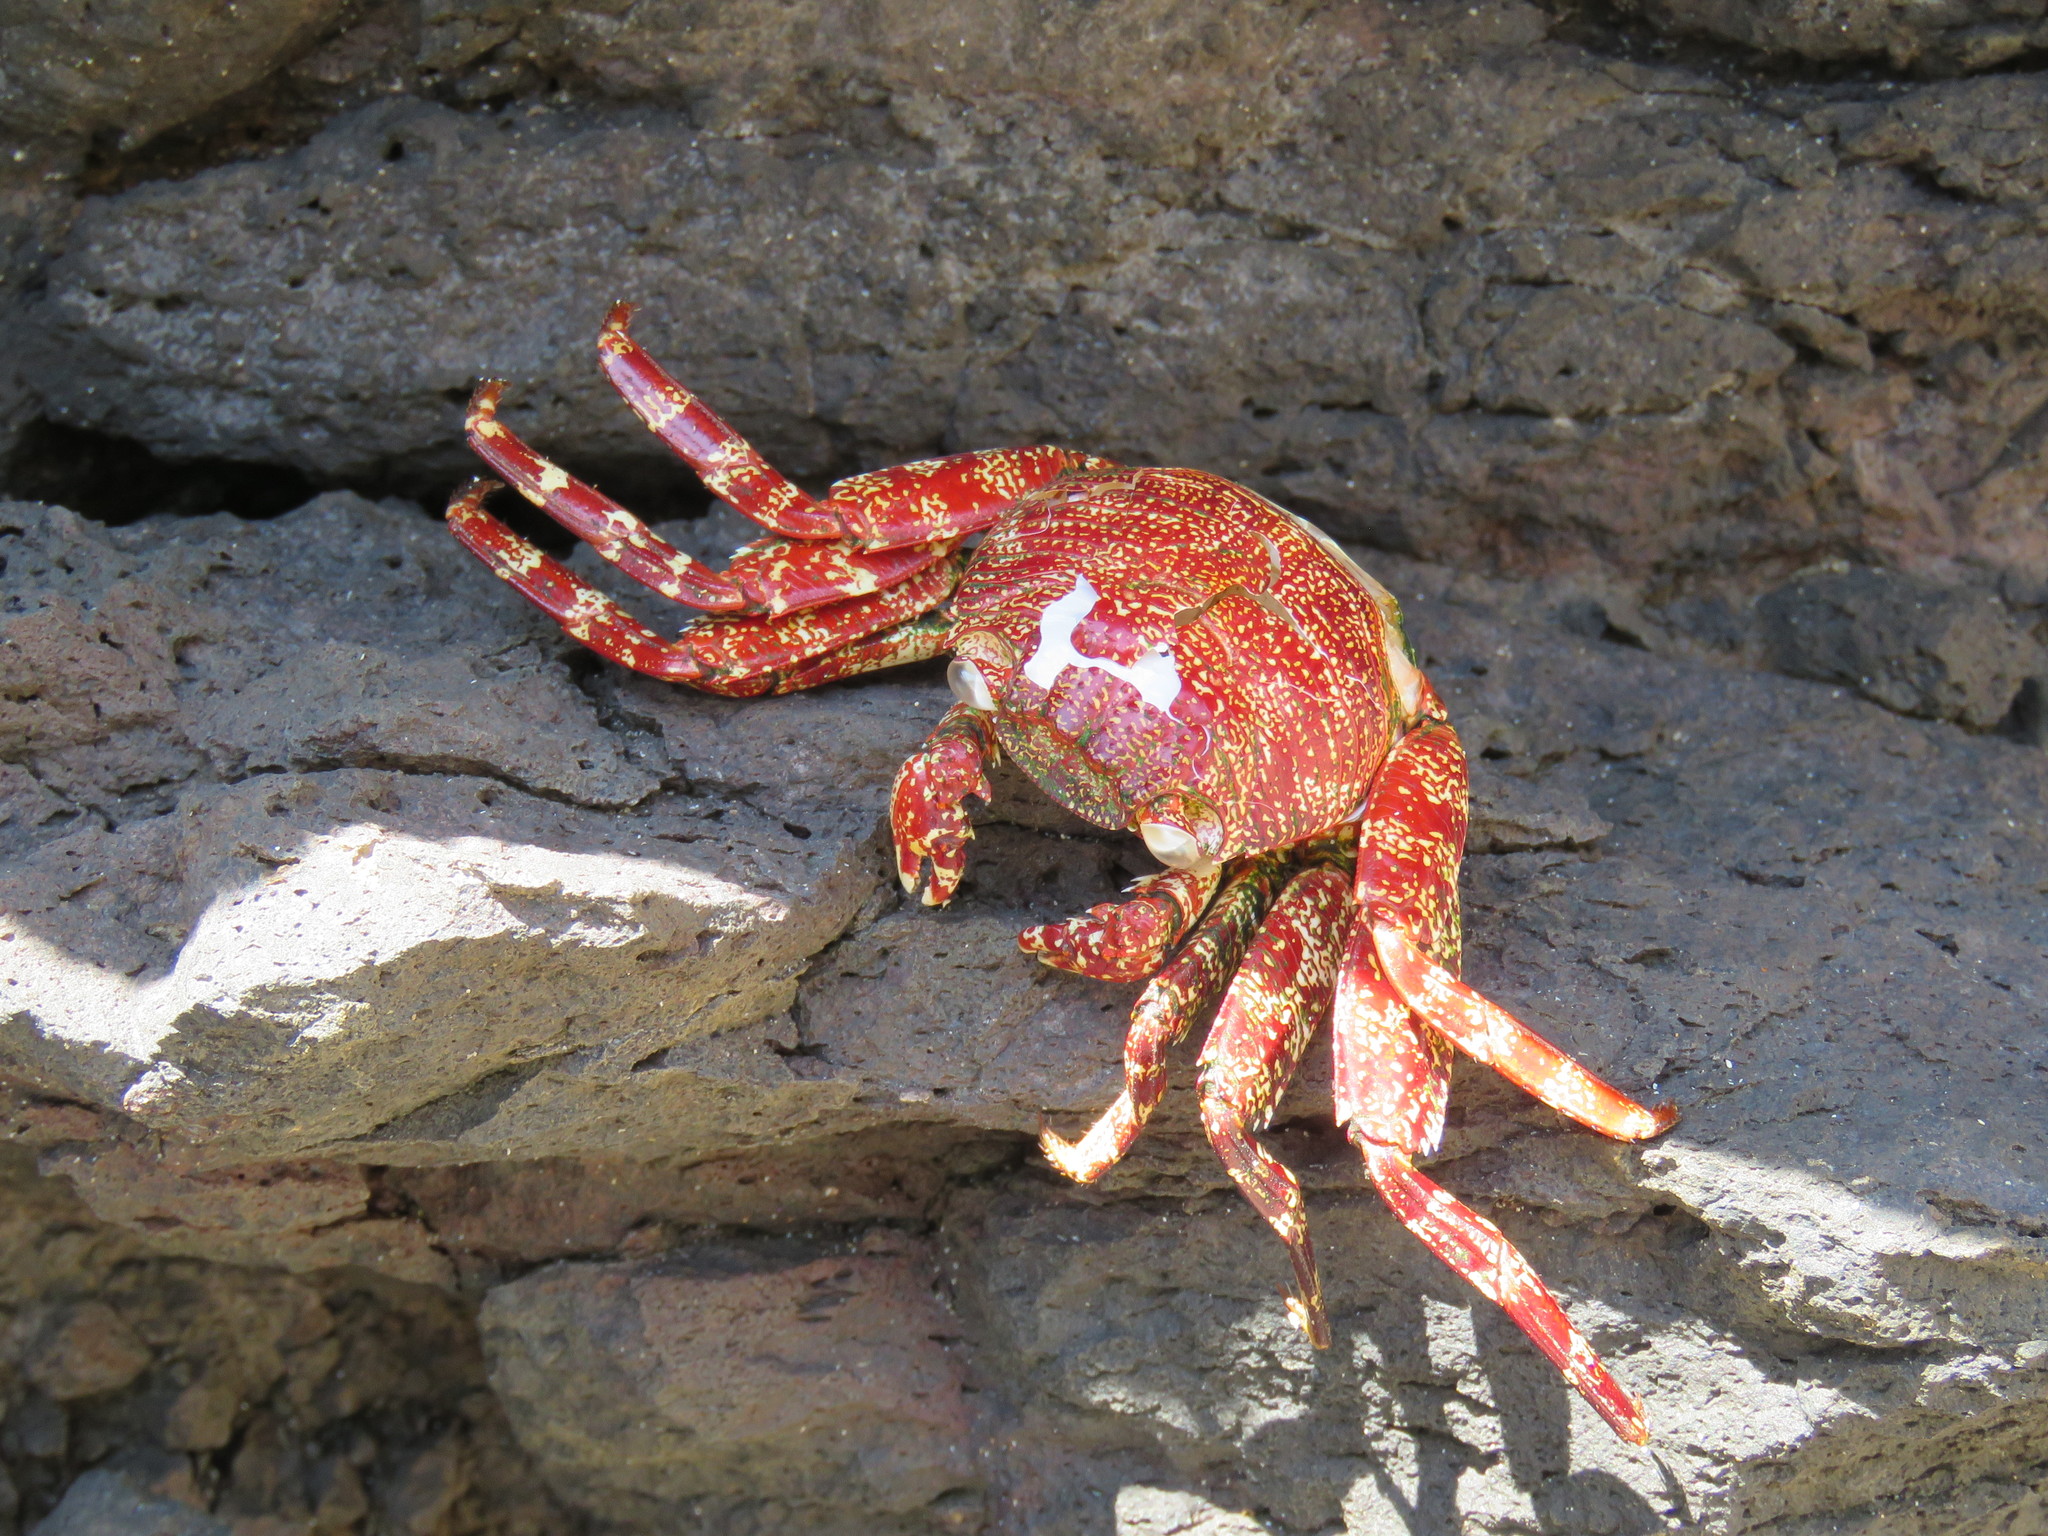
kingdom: Animalia
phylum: Arthropoda
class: Malacostraca
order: Decapoda
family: Grapsidae
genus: Grapsus
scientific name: Grapsus grapsus
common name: Sally lightfoot
